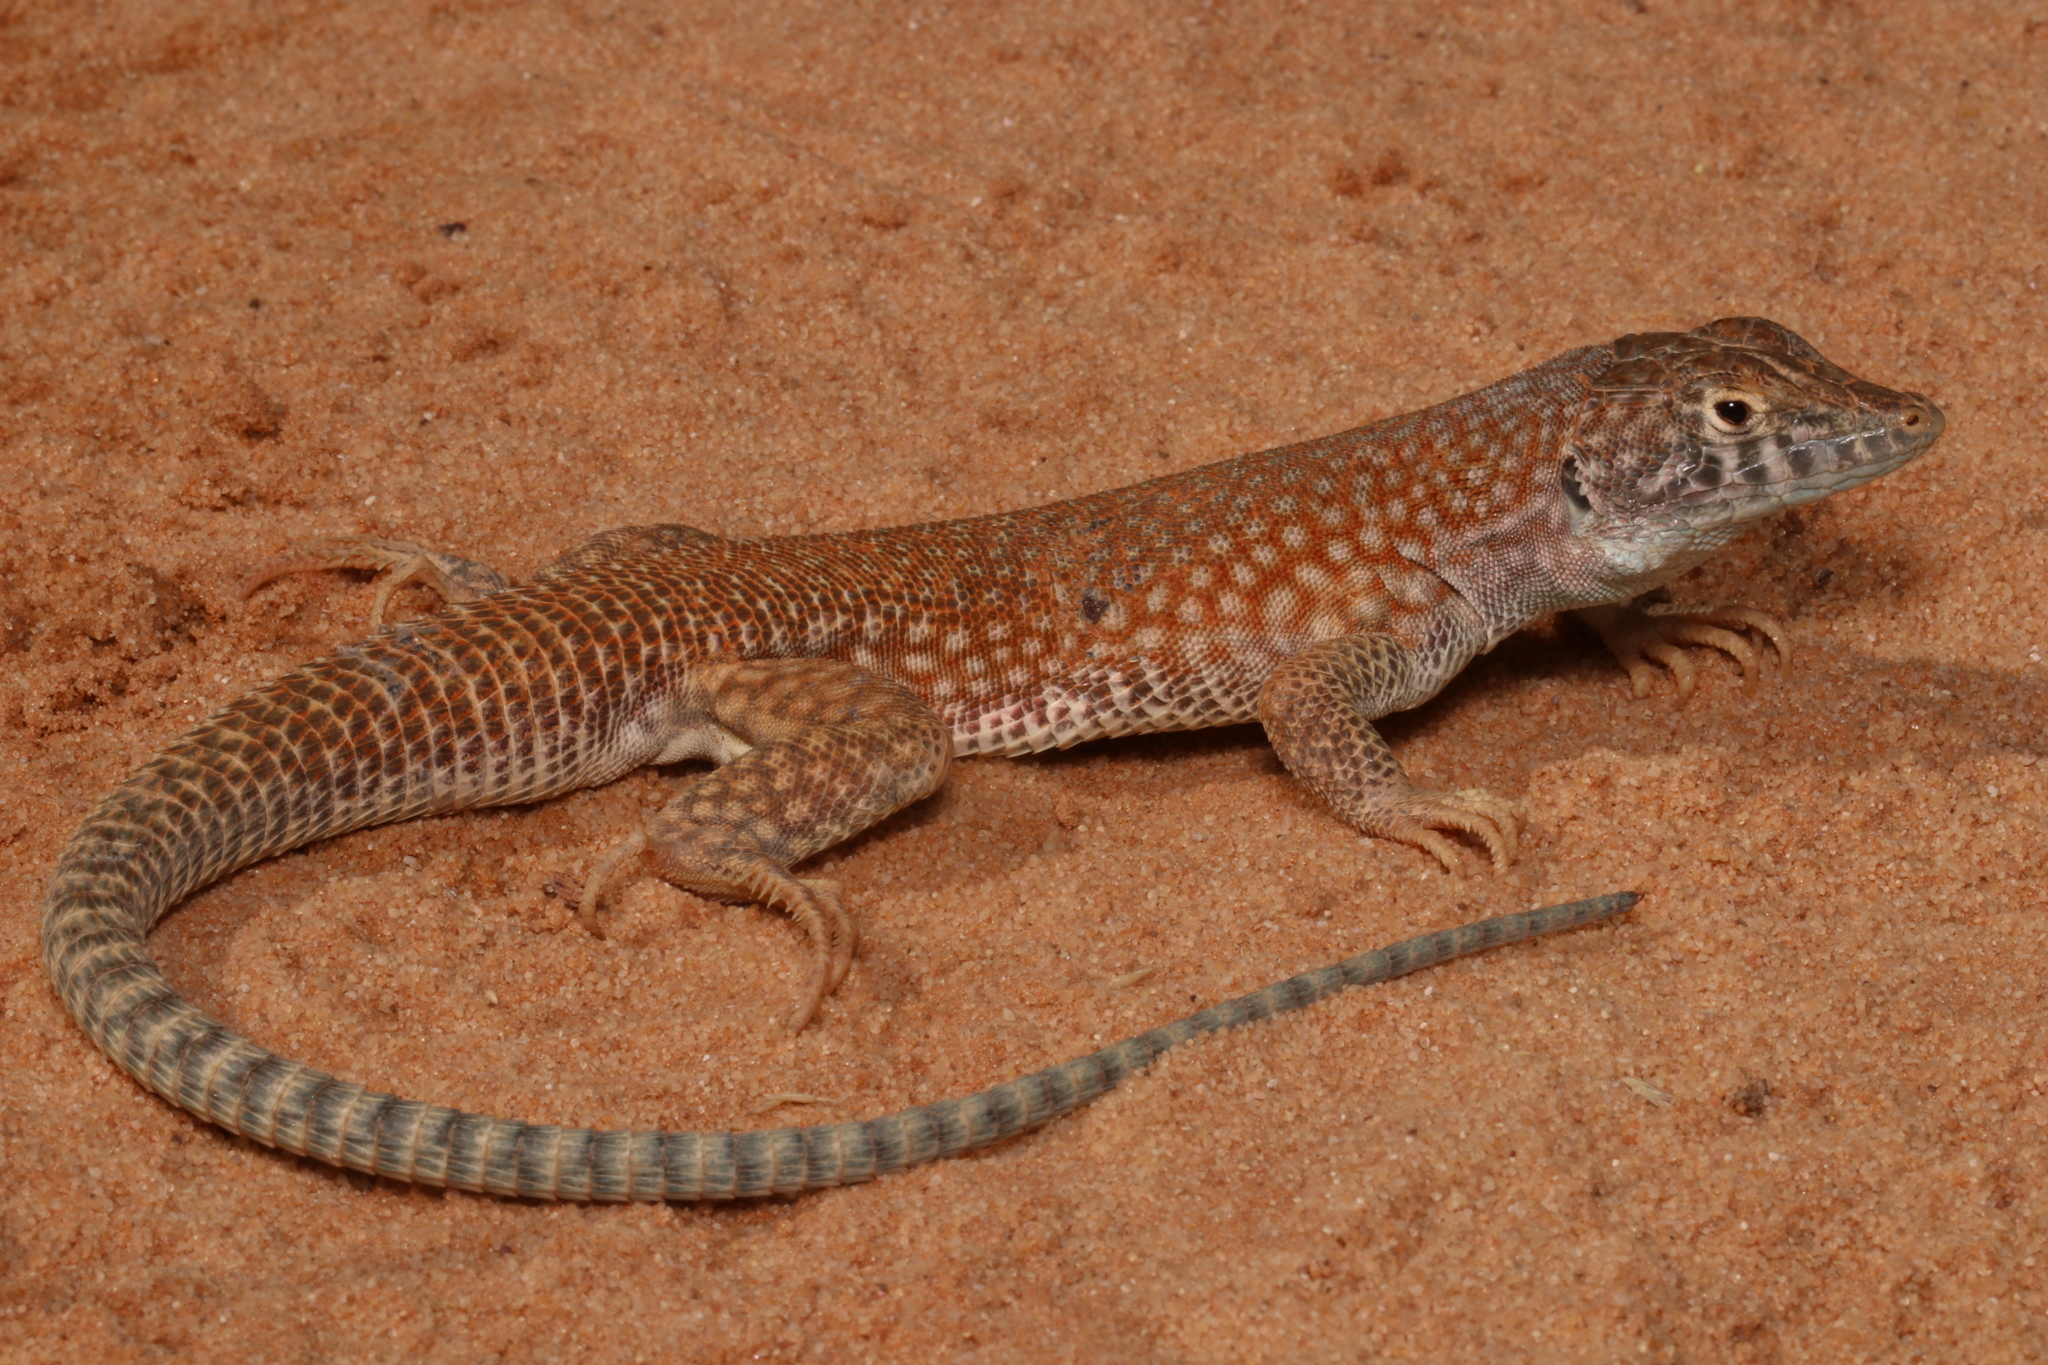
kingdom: Animalia
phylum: Chordata
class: Squamata
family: Lacertidae
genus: Acanthodactylus
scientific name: Acanthodactylus schmidti
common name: Schmidt's fringe-toed lizard
